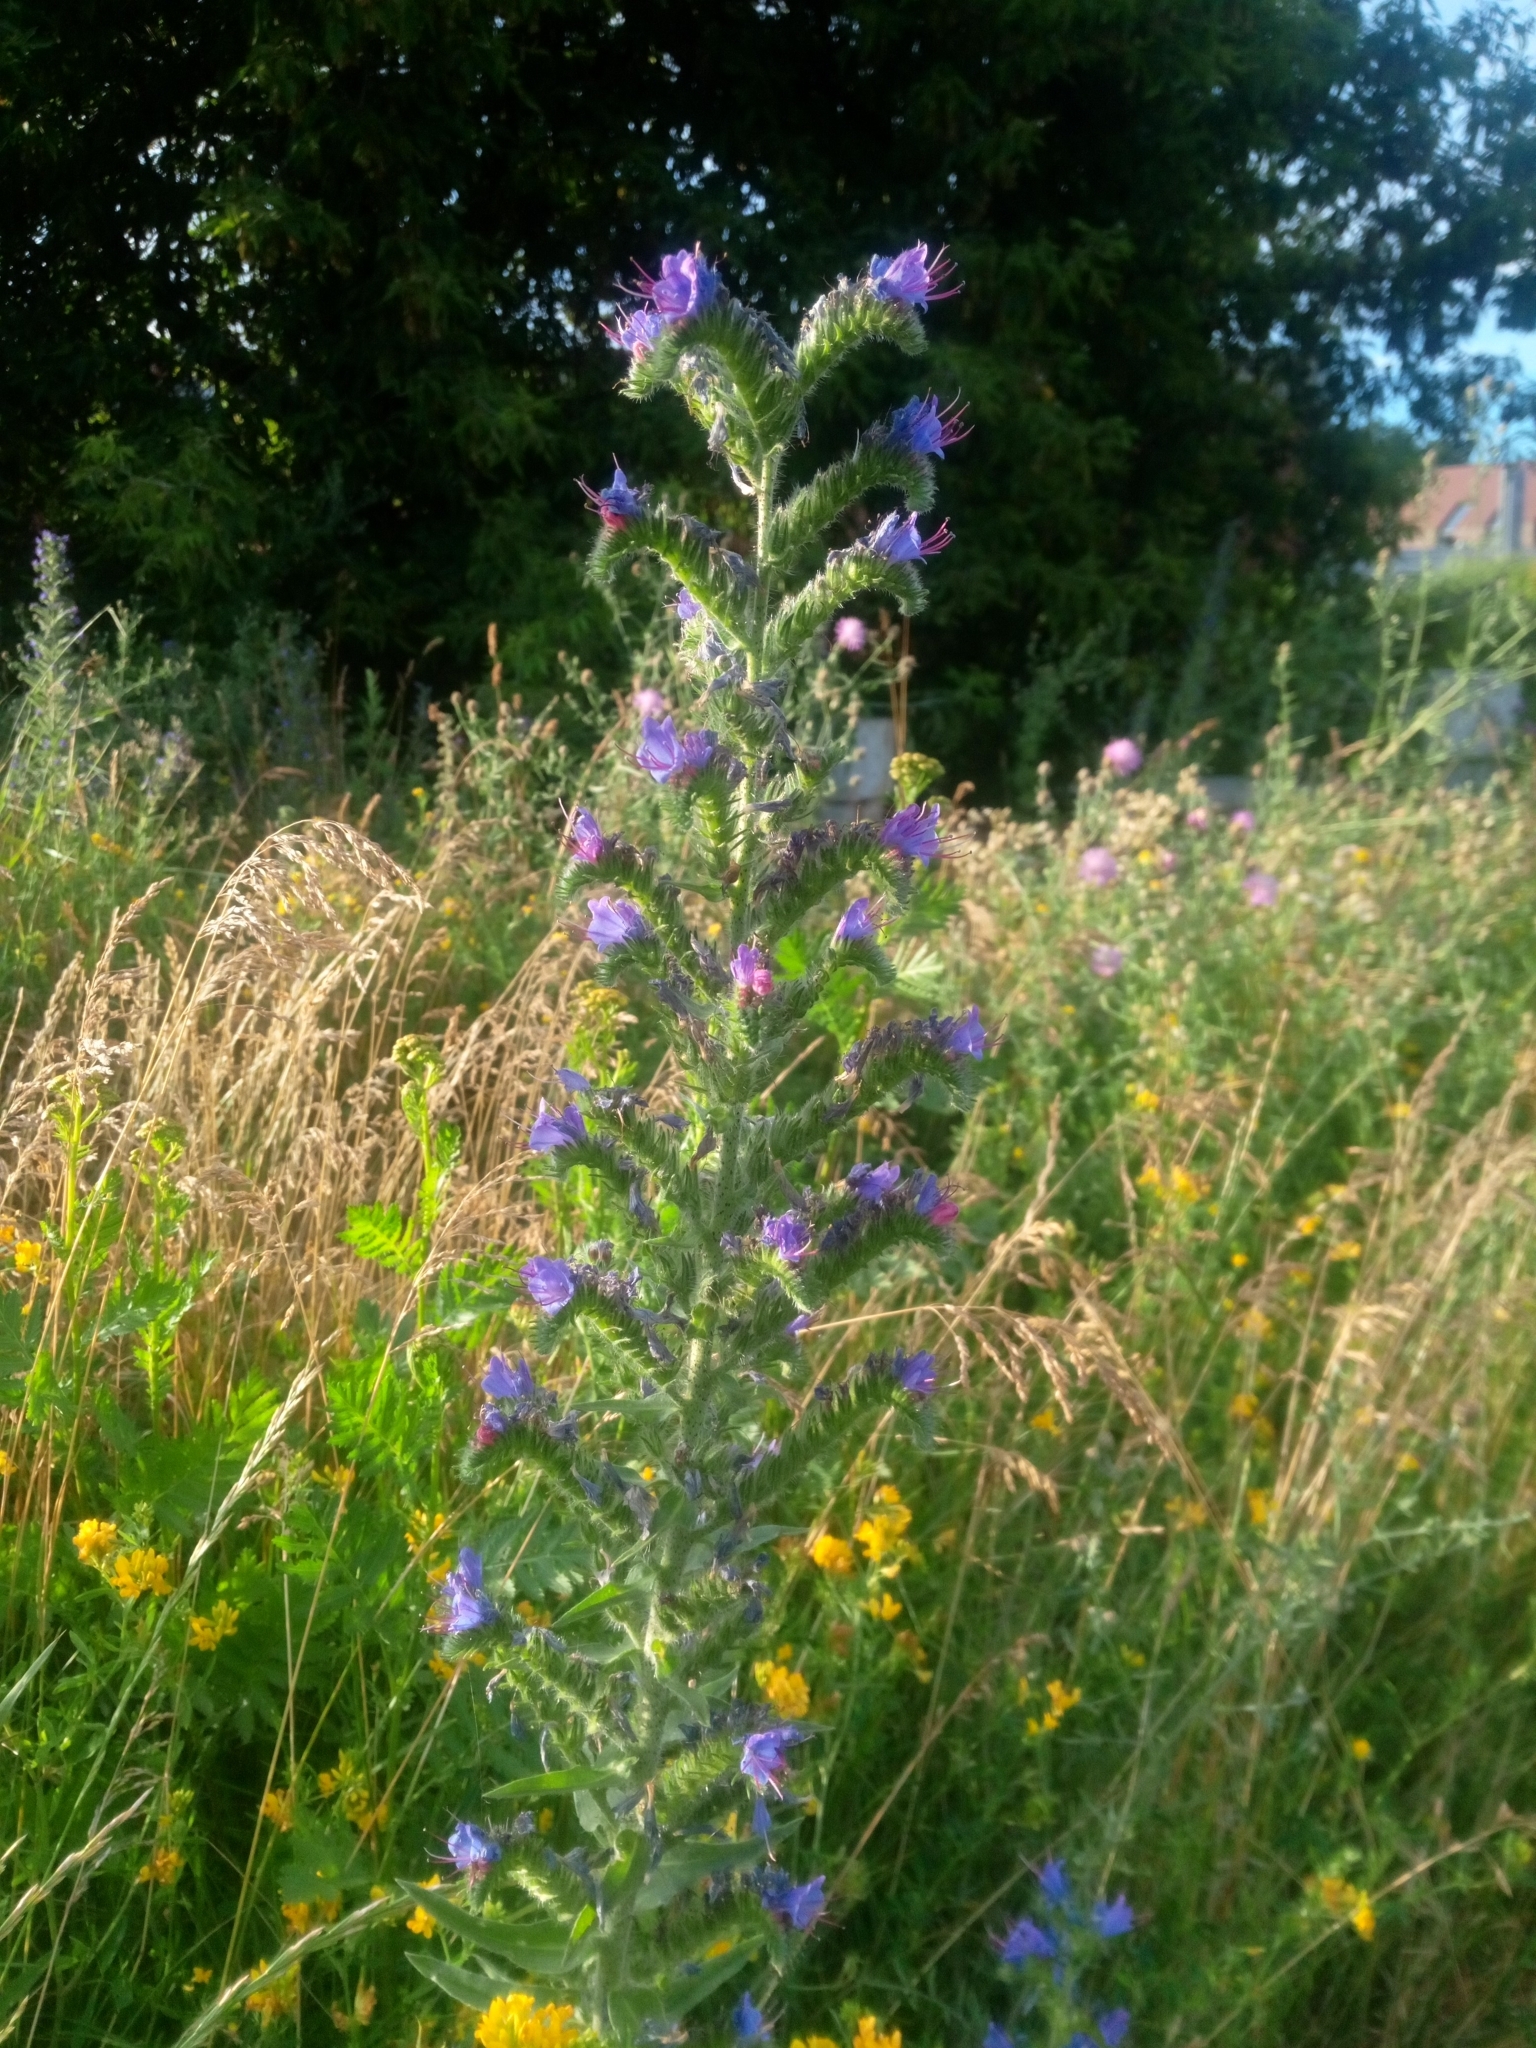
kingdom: Plantae
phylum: Tracheophyta
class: Magnoliopsida
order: Boraginales
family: Boraginaceae
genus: Echium
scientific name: Echium vulgare
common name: Common viper's bugloss
